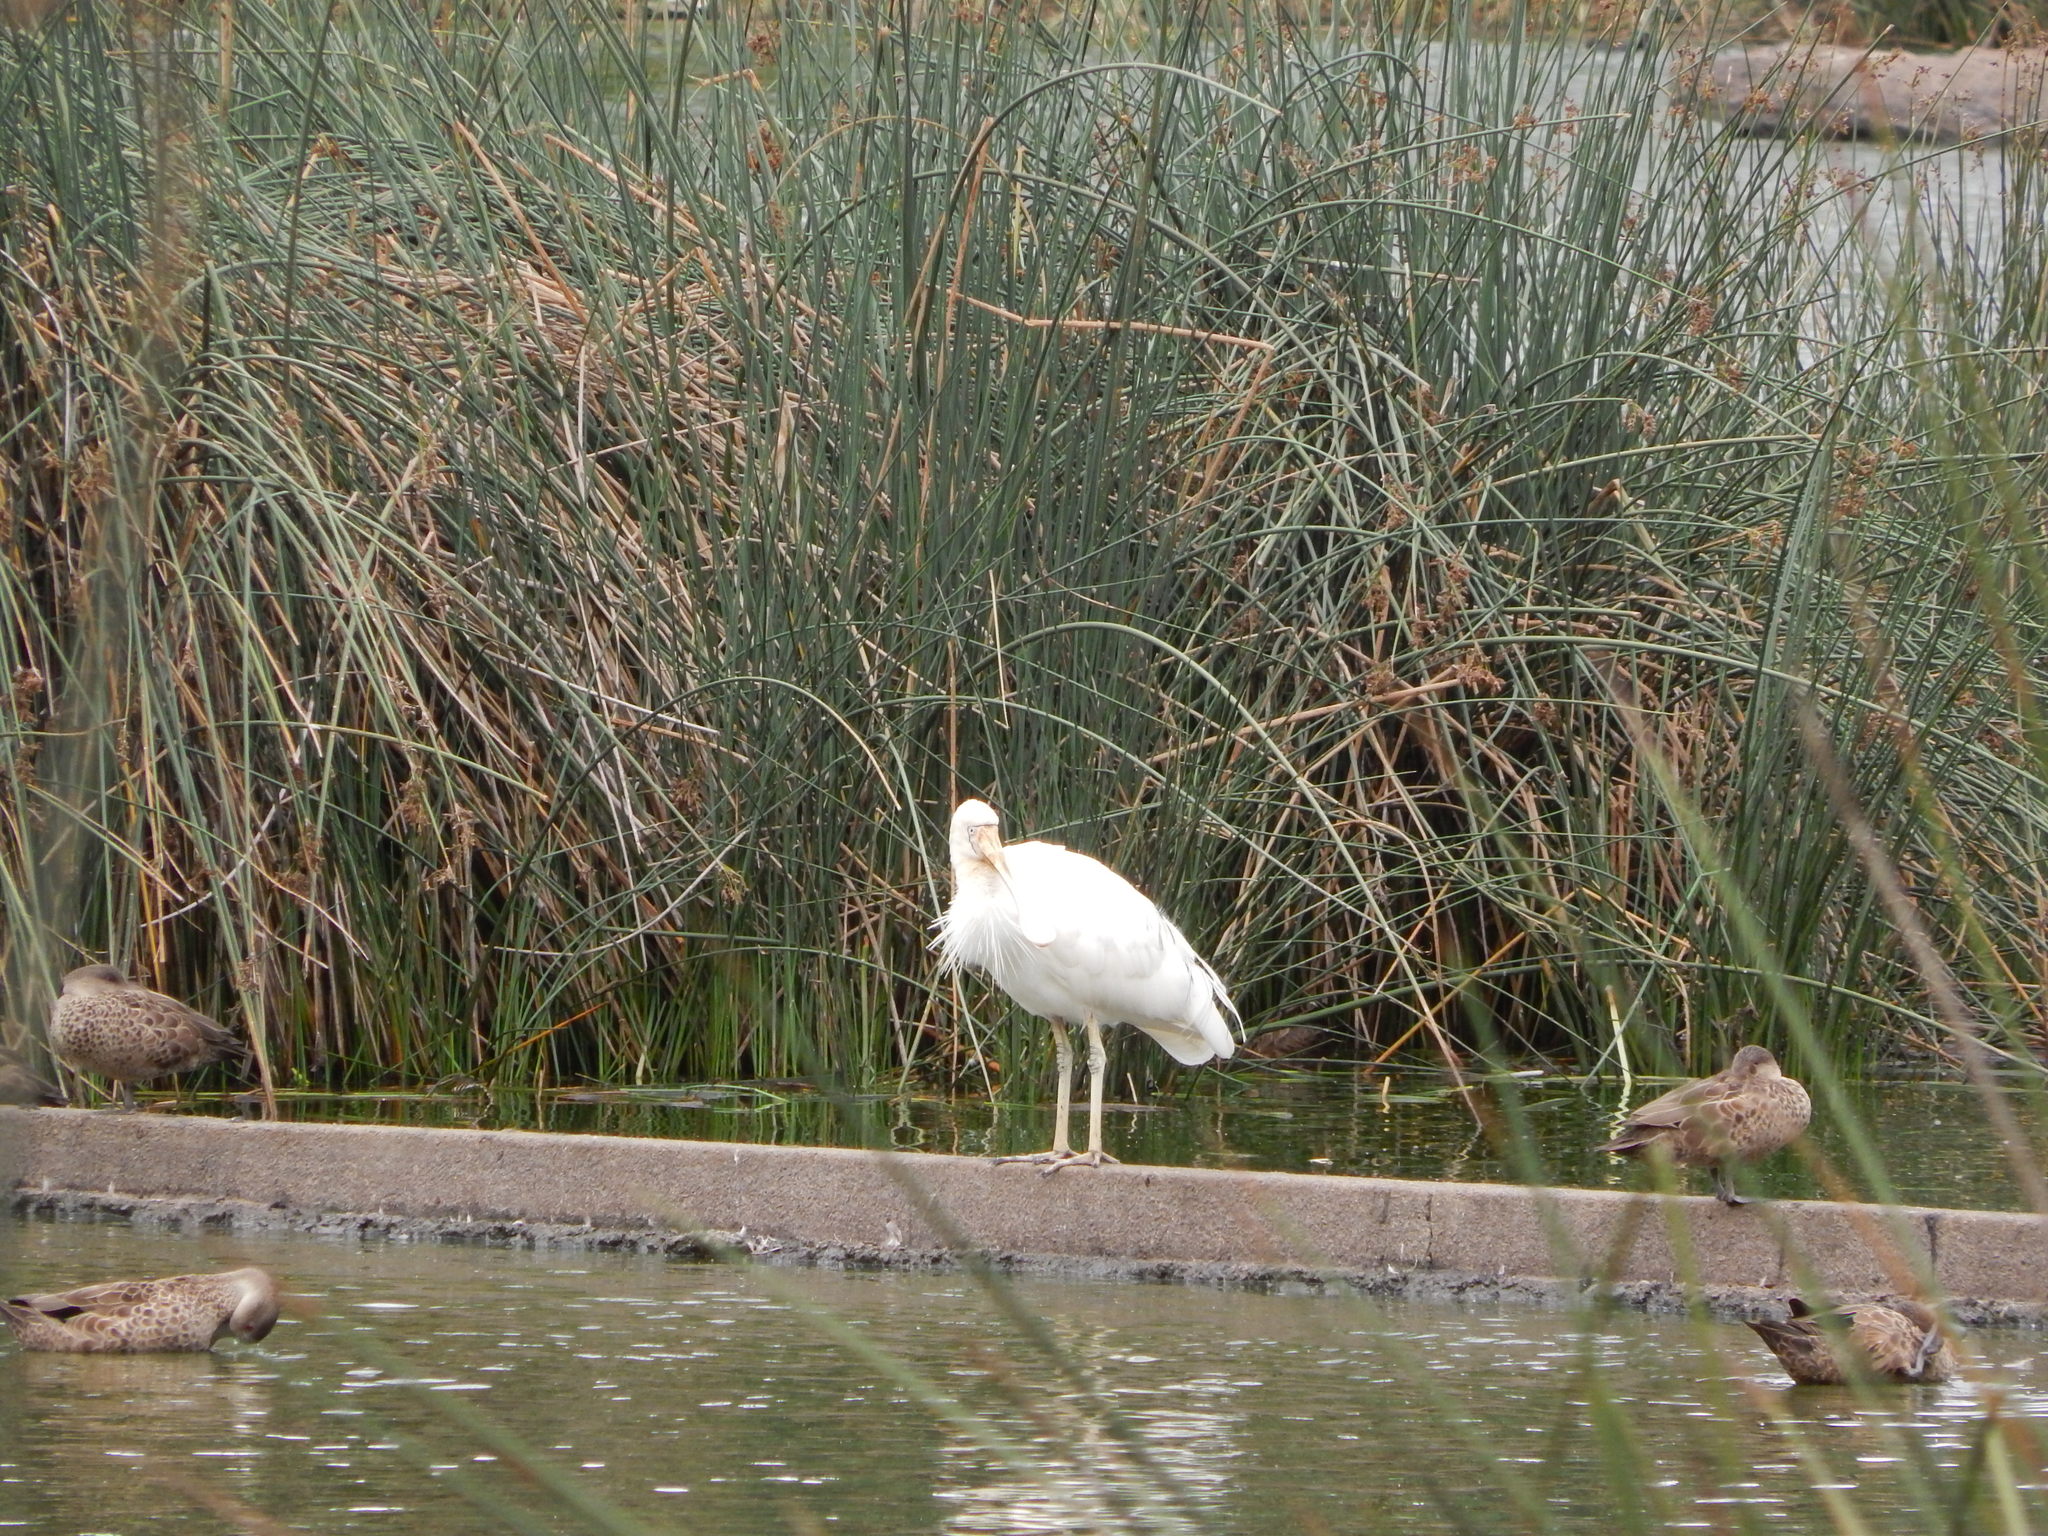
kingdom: Animalia
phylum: Chordata
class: Aves
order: Pelecaniformes
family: Threskiornithidae
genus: Platalea
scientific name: Platalea flavipes
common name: Yellow-billed spoonbill
